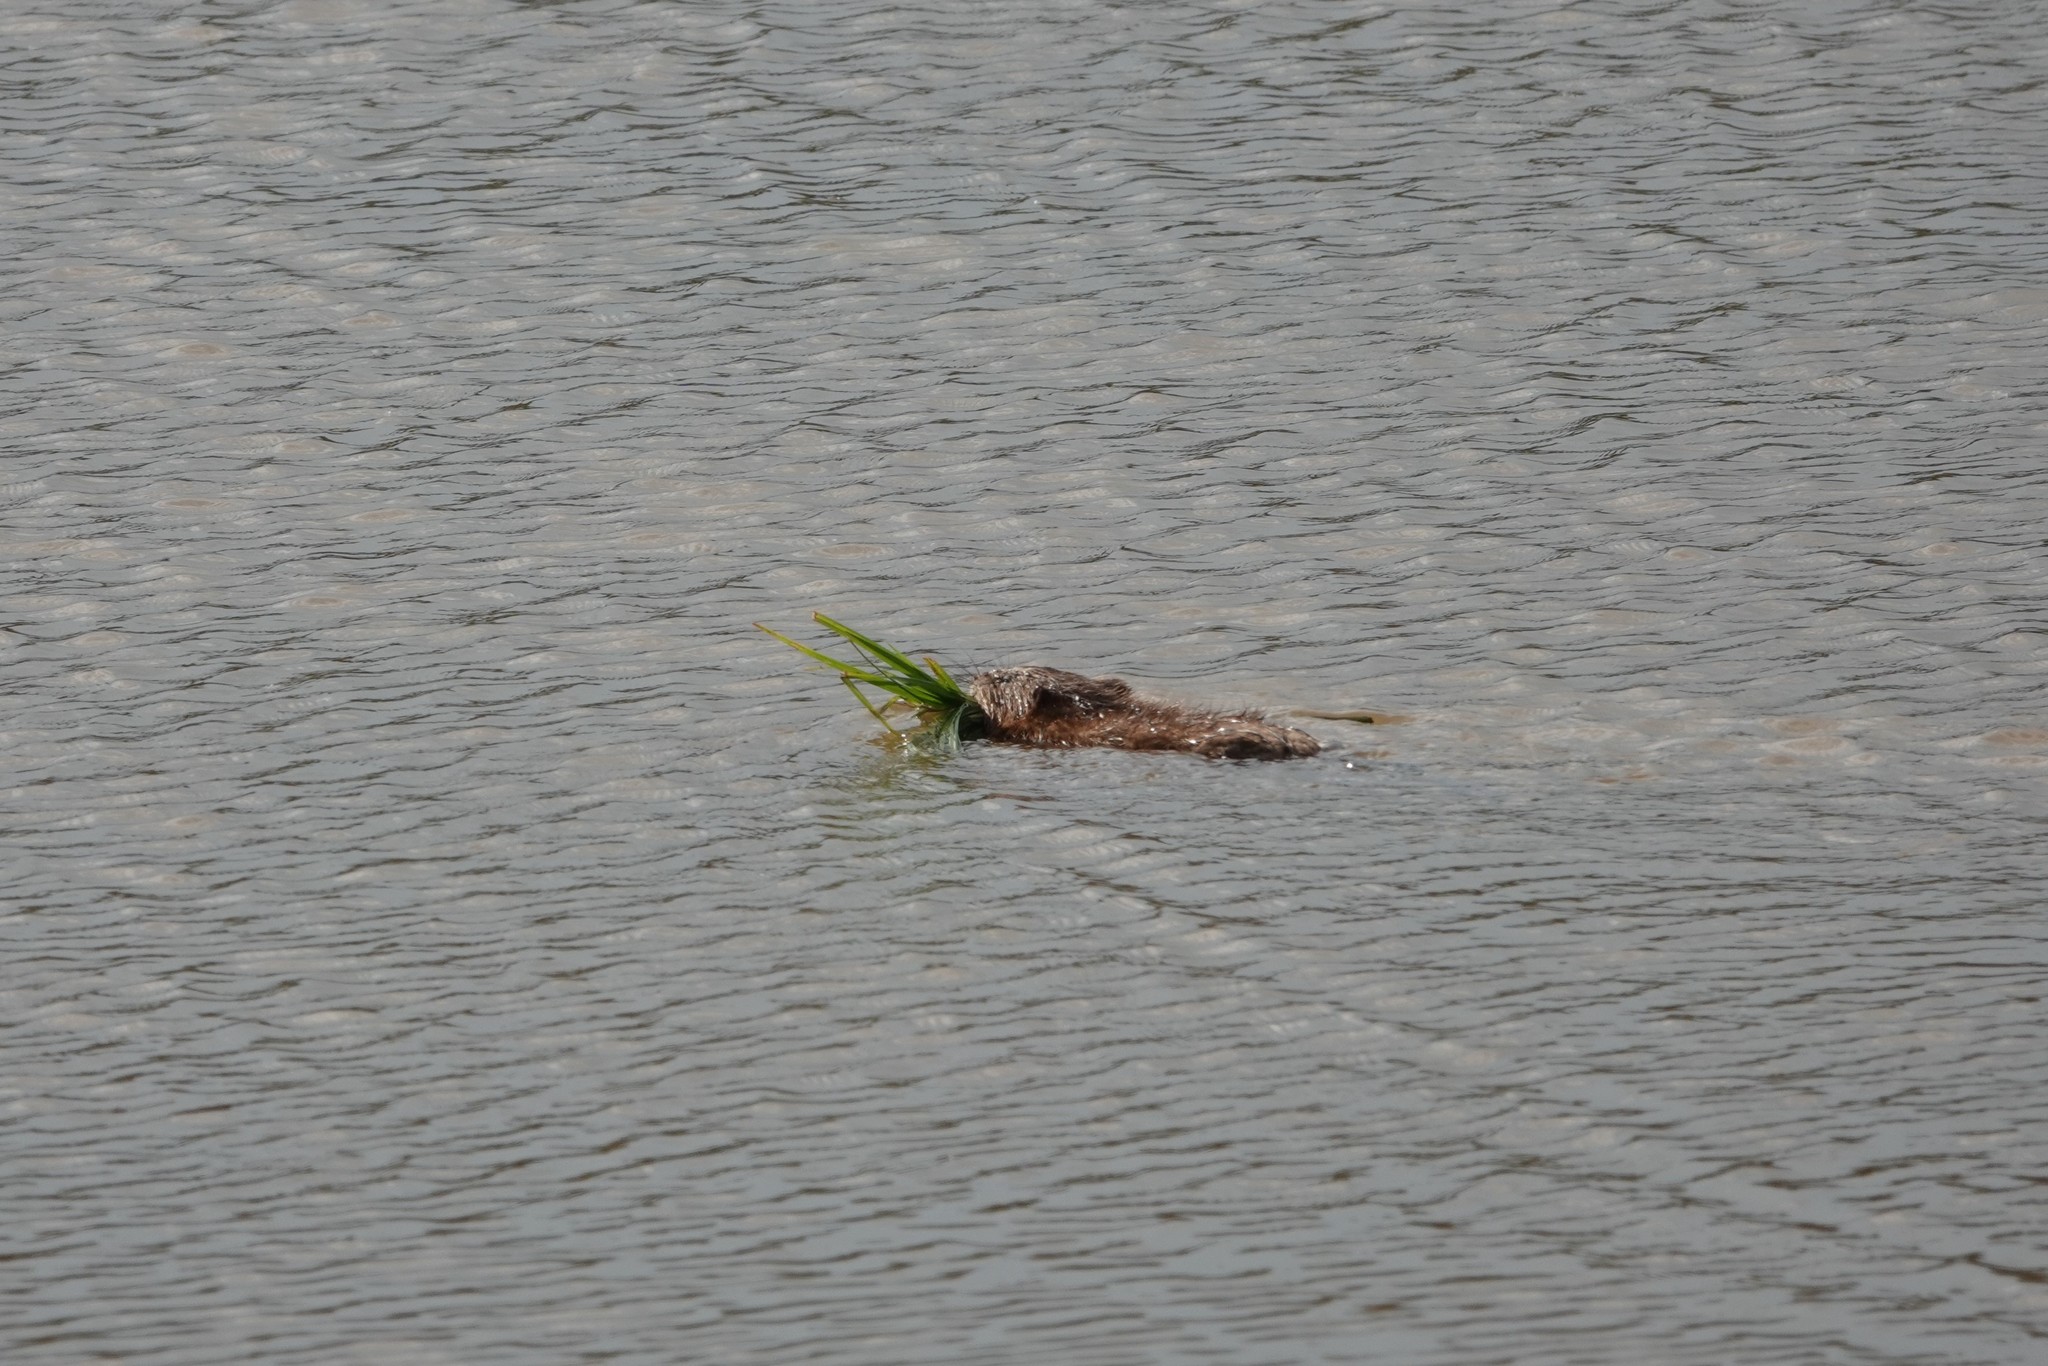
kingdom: Animalia
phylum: Chordata
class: Mammalia
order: Rodentia
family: Cricetidae
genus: Ondatra
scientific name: Ondatra zibethicus
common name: Muskrat
